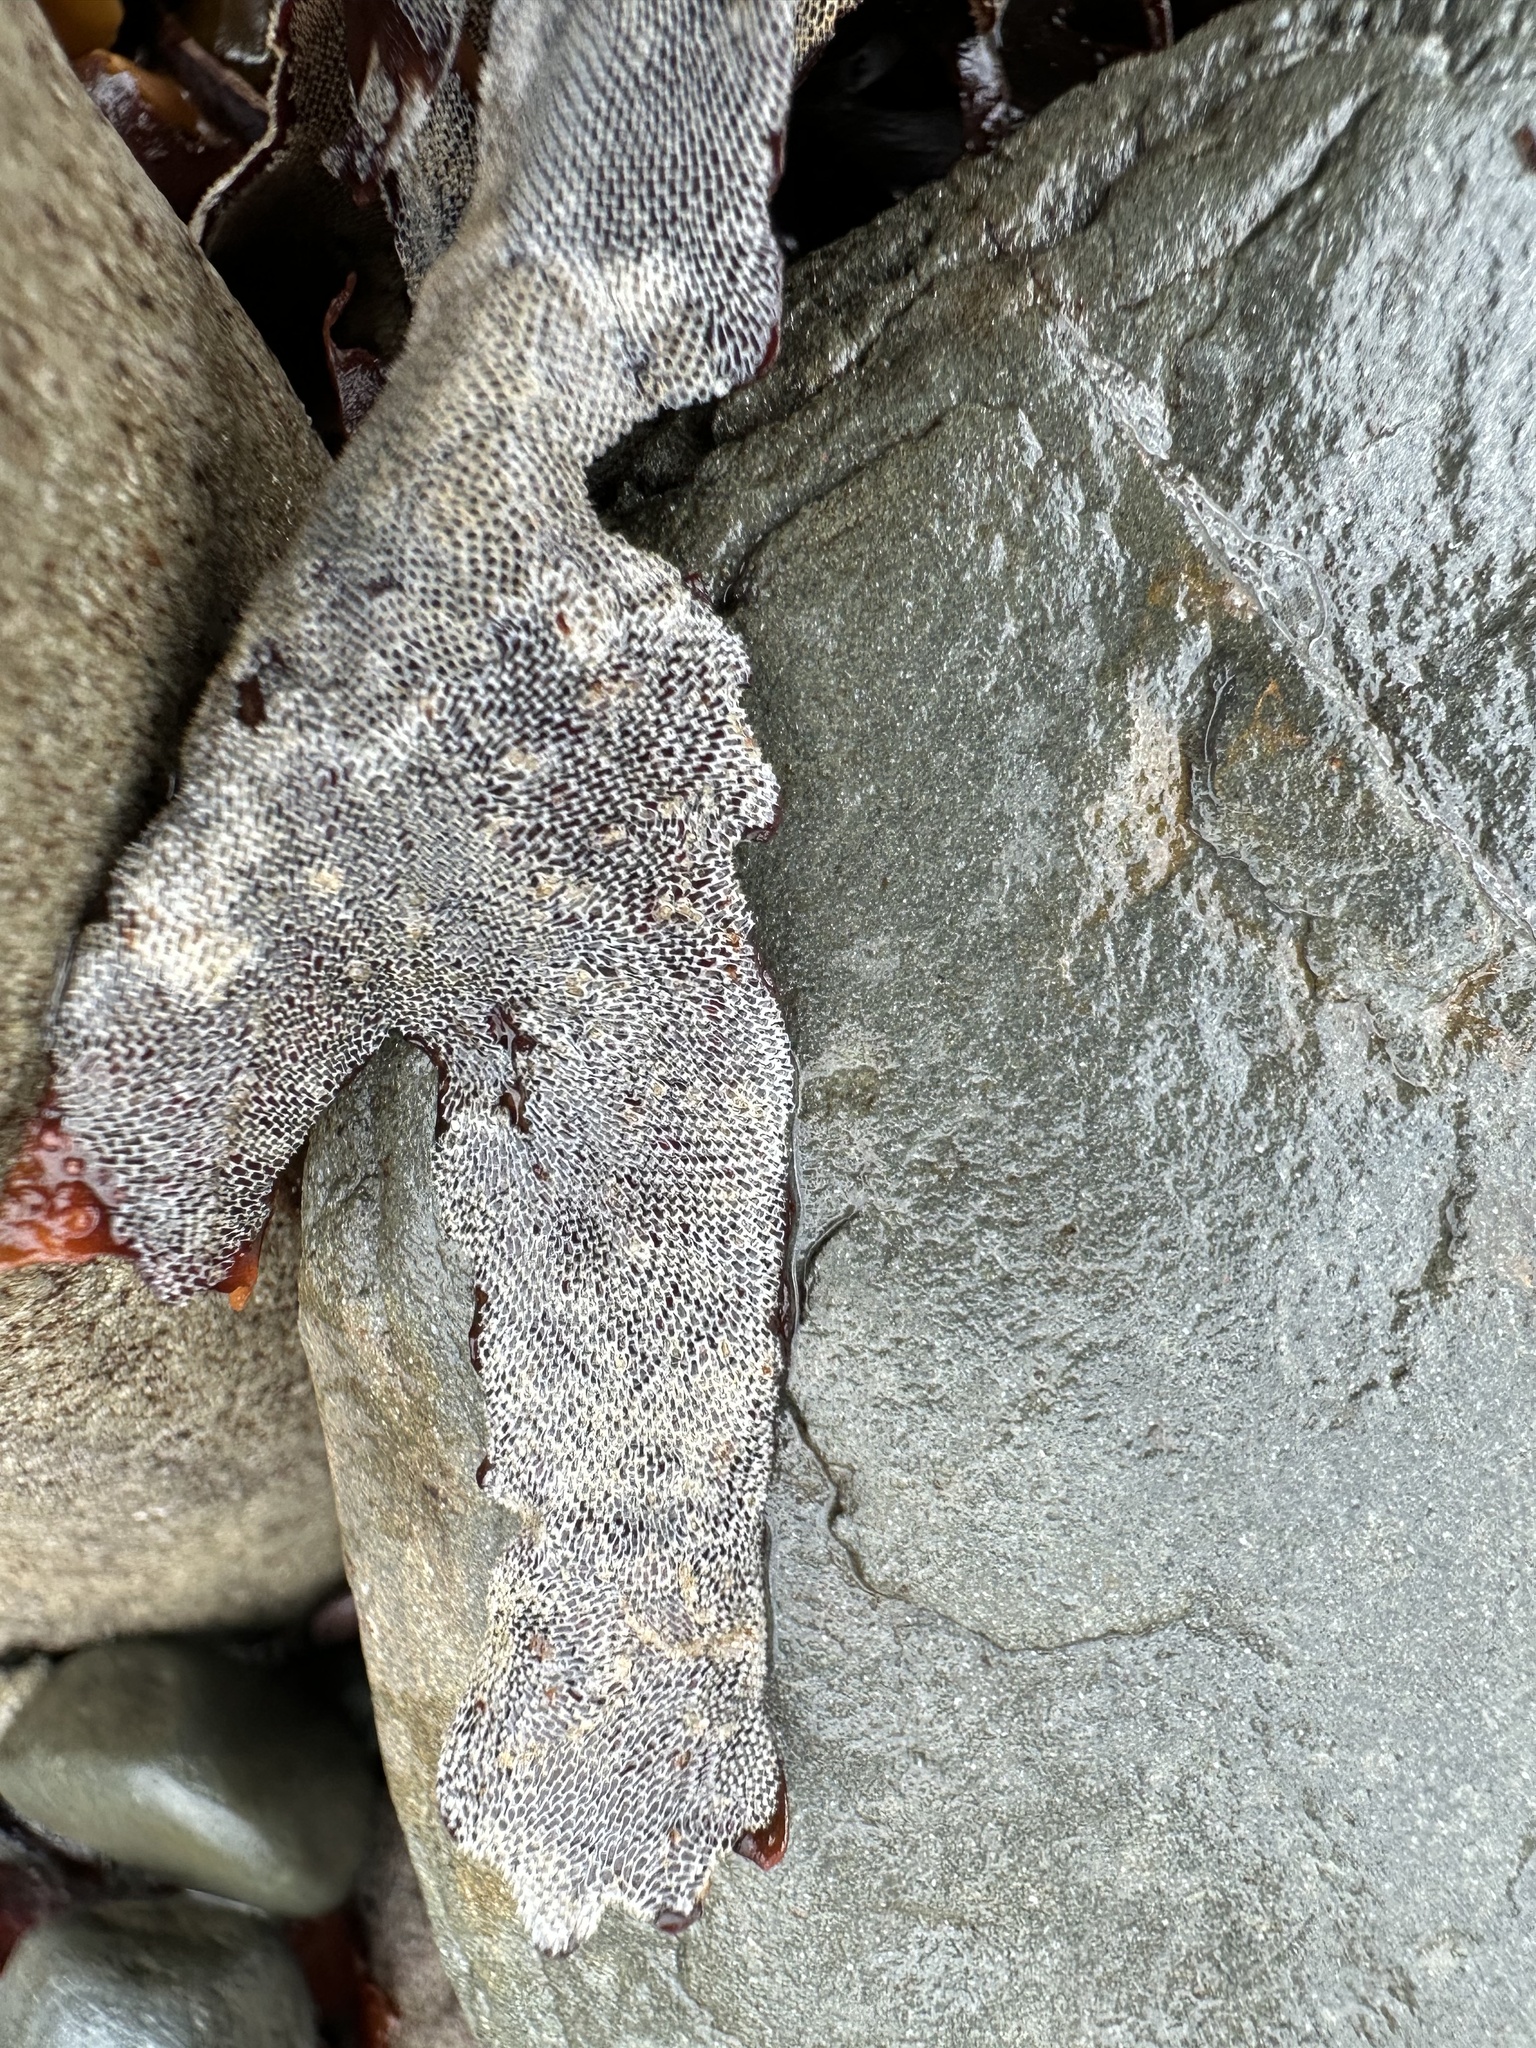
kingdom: Animalia
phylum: Bryozoa
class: Gymnolaemata
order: Cheilostomatida
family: Membraniporidae
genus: Membranipora
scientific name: Membranipora membranacea
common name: Sea mat
